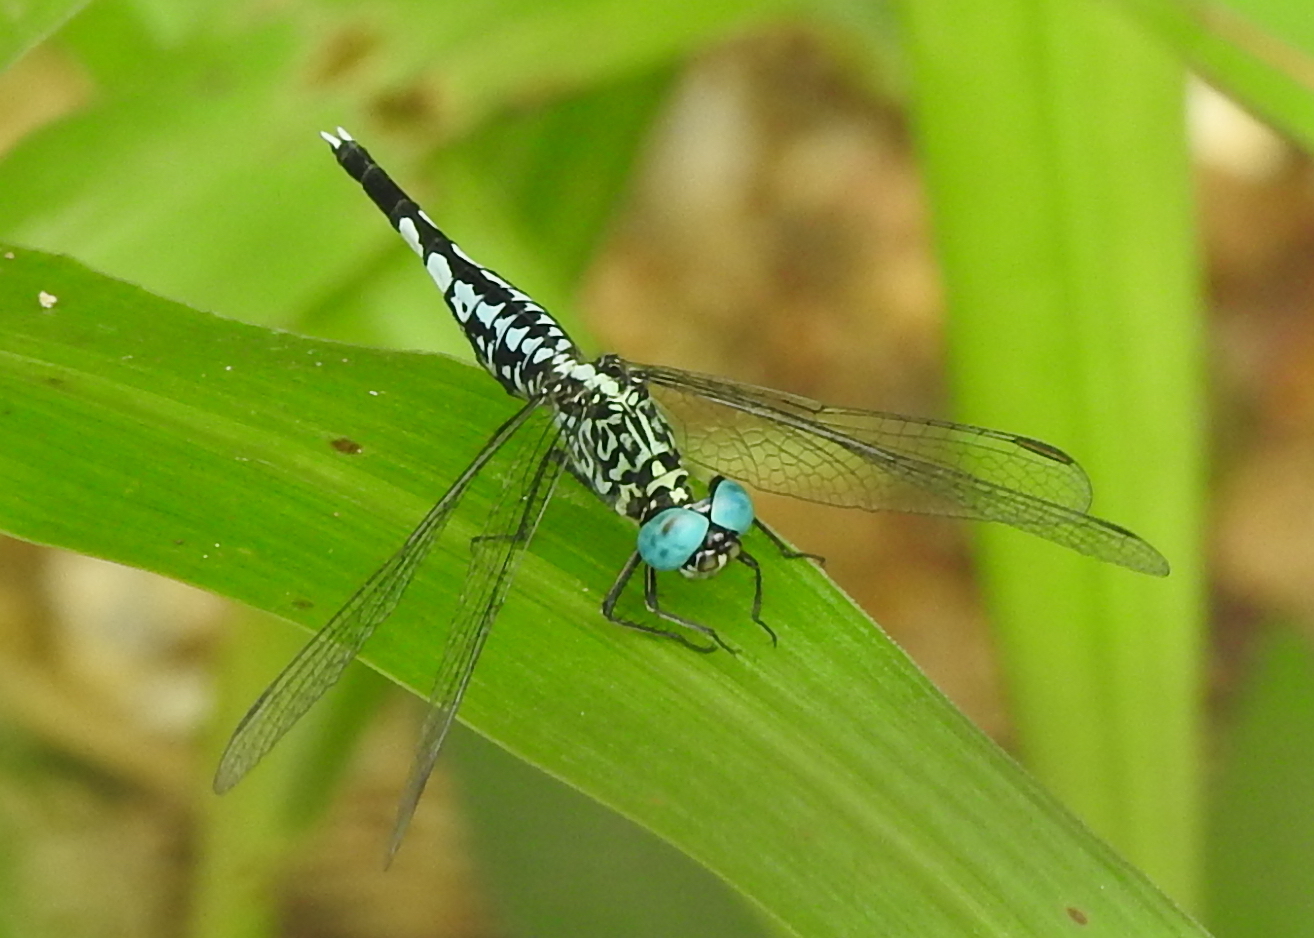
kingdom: Animalia
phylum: Arthropoda
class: Insecta
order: Odonata
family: Libellulidae
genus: Acisoma
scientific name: Acisoma panorpoides
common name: Asian pintail
